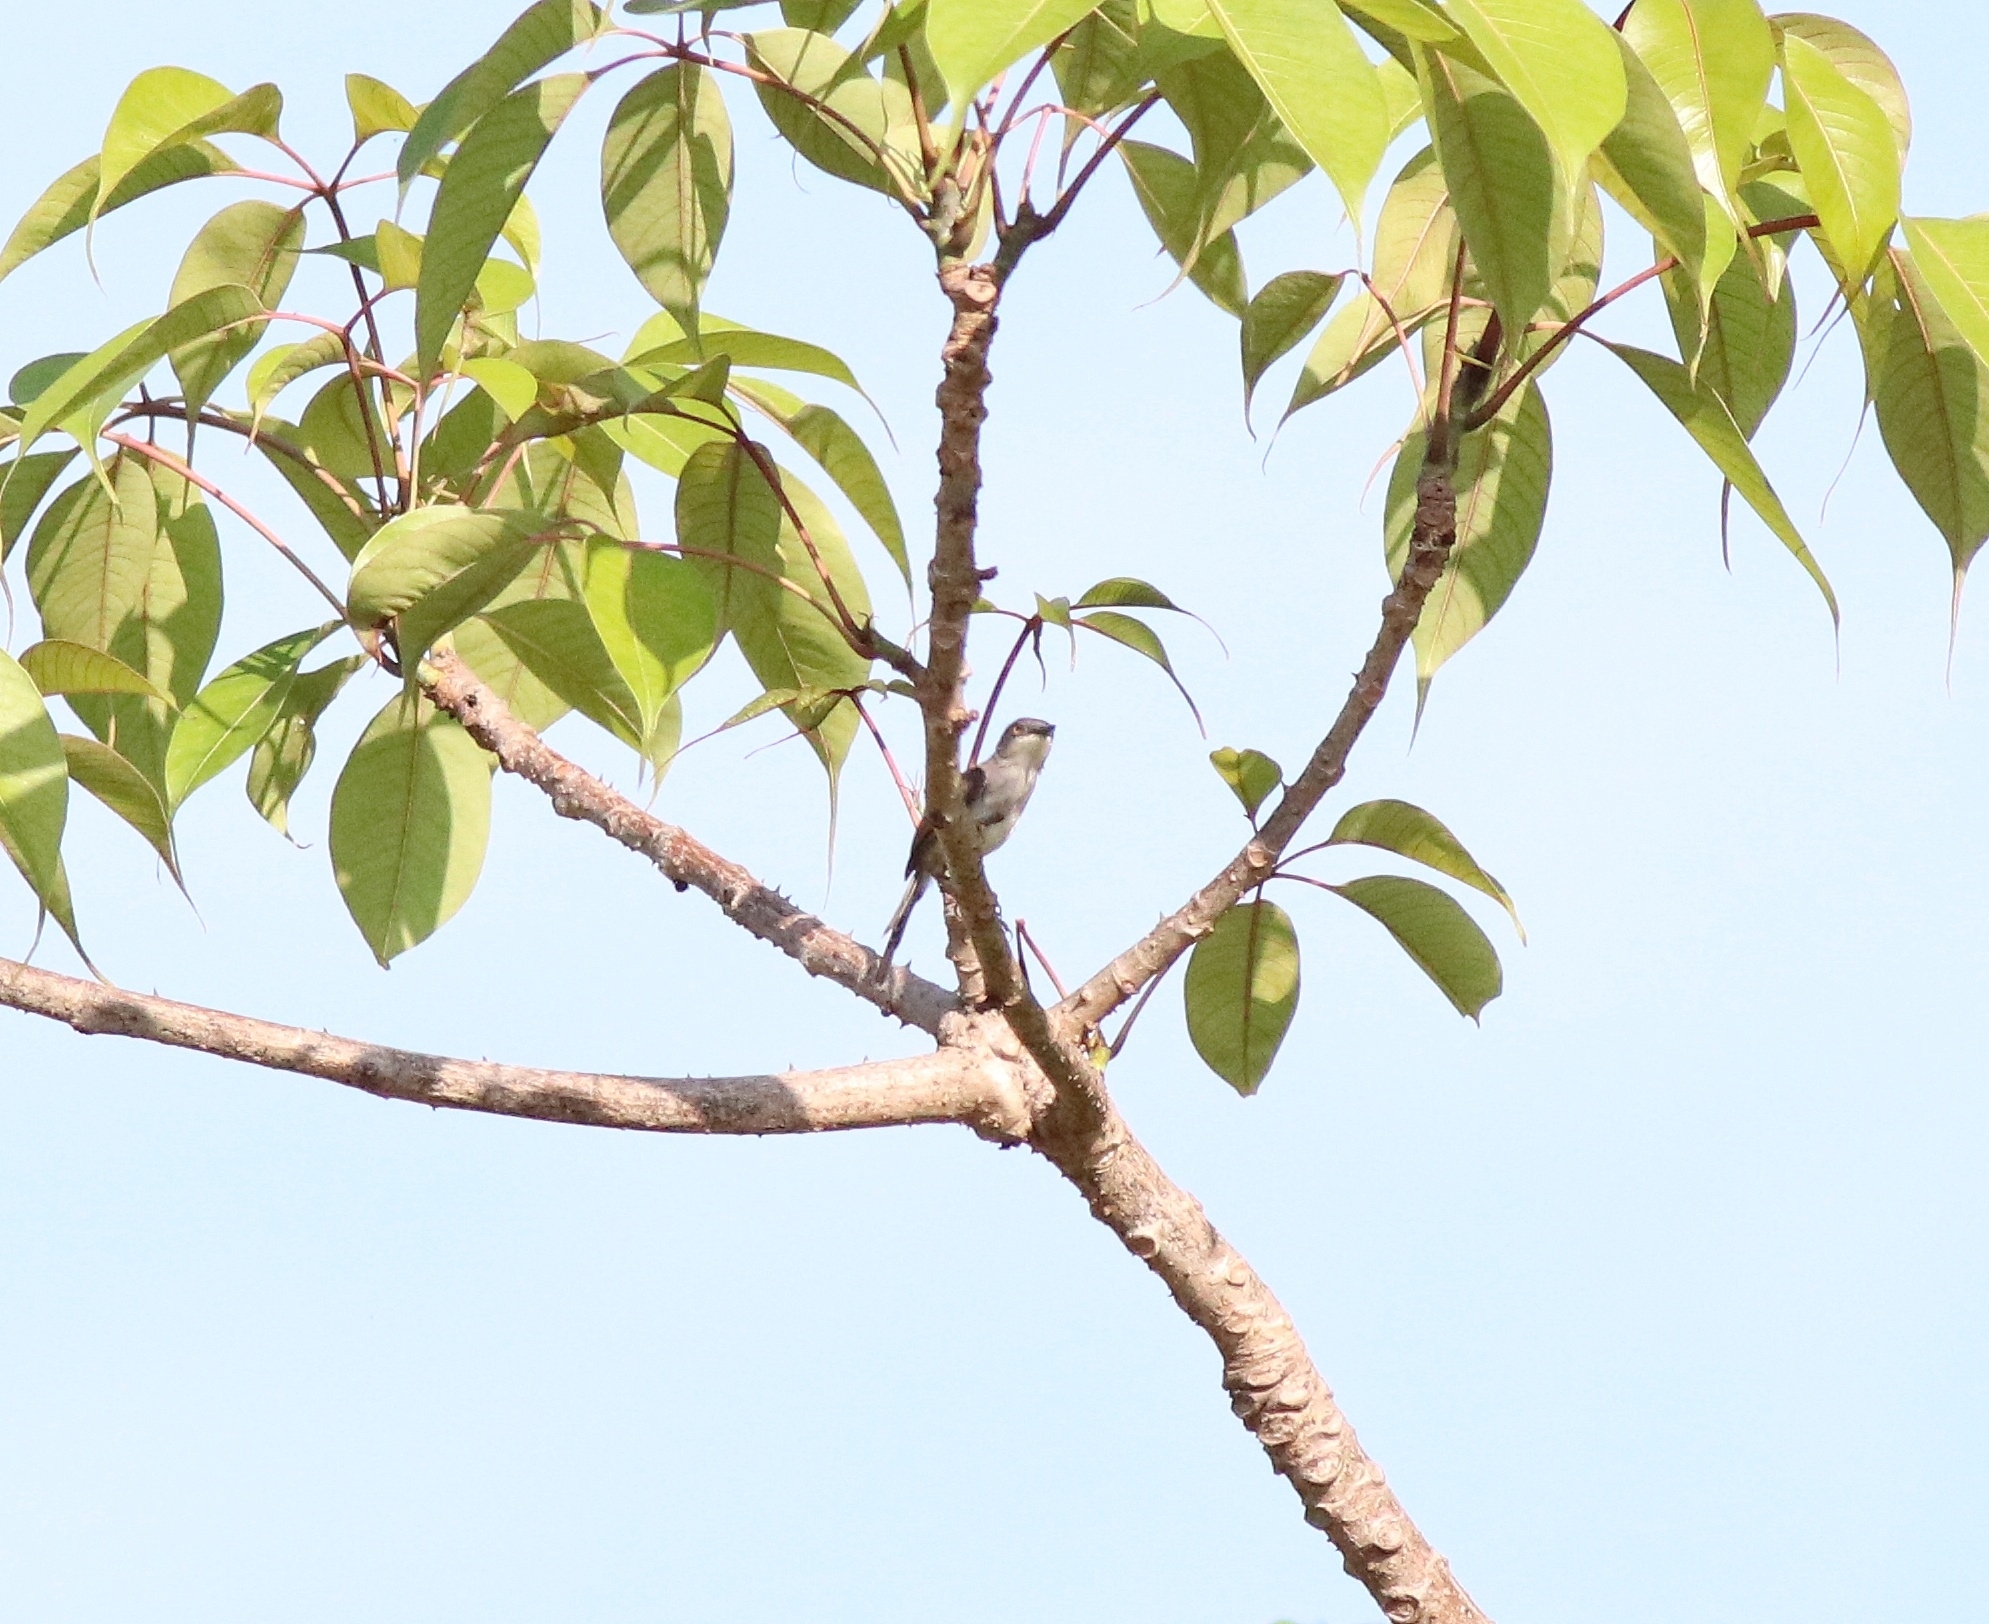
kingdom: Animalia
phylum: Chordata
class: Aves
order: Passeriformes
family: Cisticolidae
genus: Prinia
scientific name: Prinia hodgsonii
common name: Grey-breasted prinia
